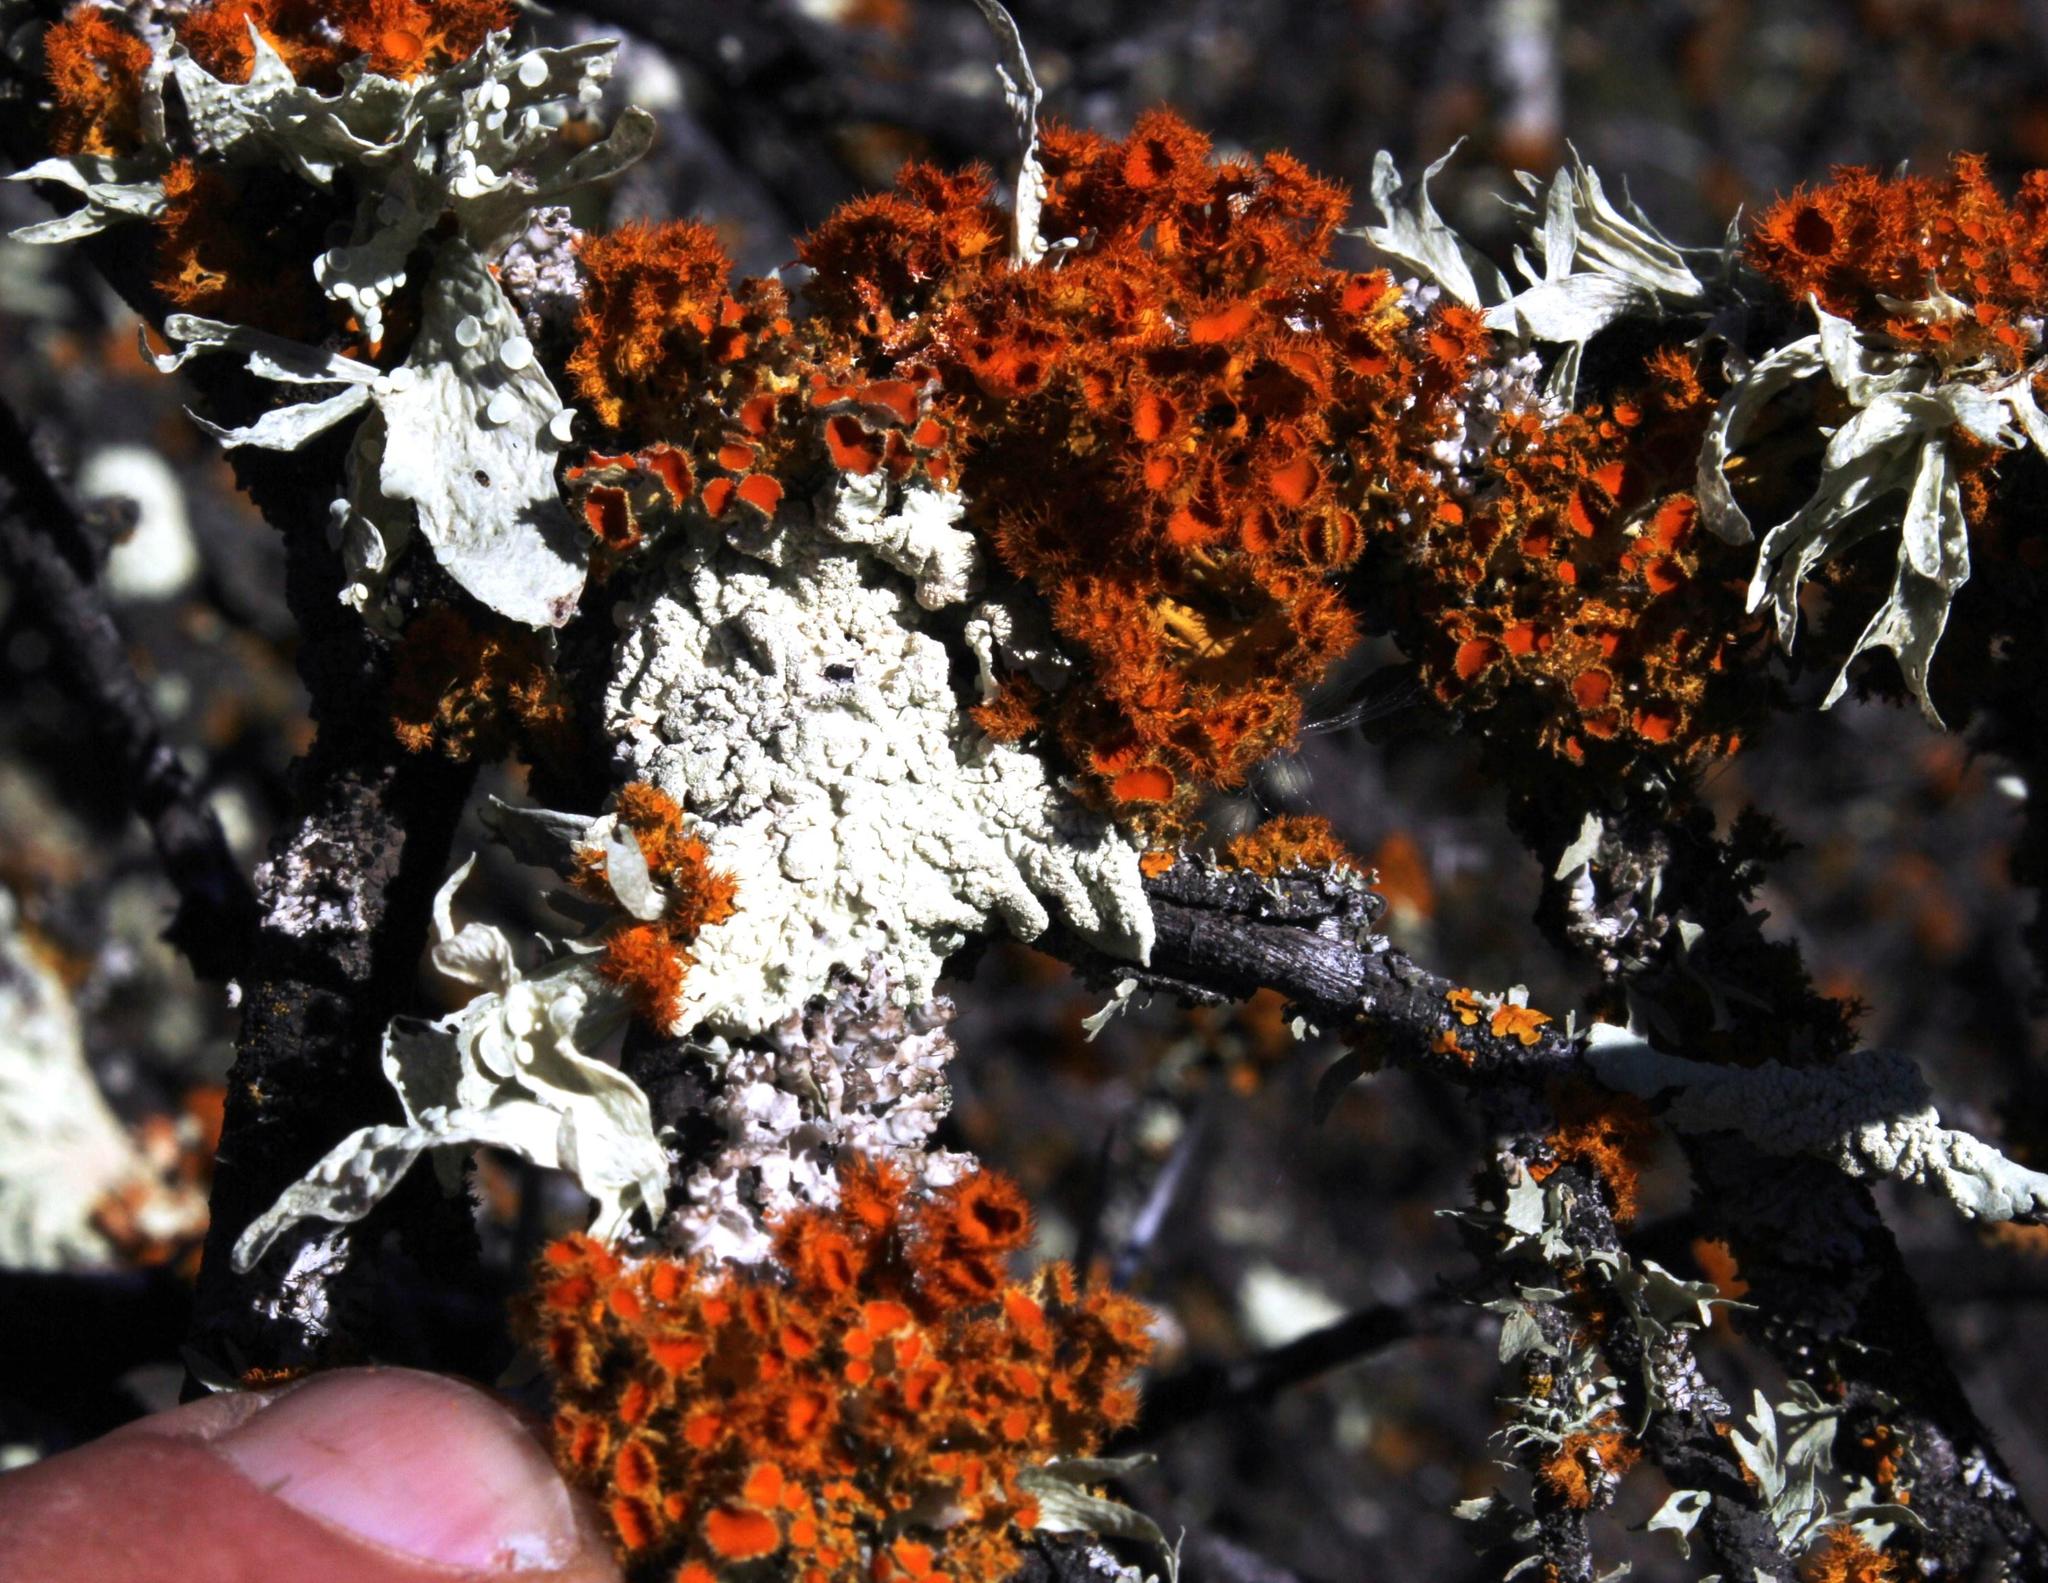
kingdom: Fungi
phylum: Ascomycota
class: Lecanoromycetes
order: Teloschistales
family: Teloschistaceae
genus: Niorma
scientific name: Niorma chrysophthalma
